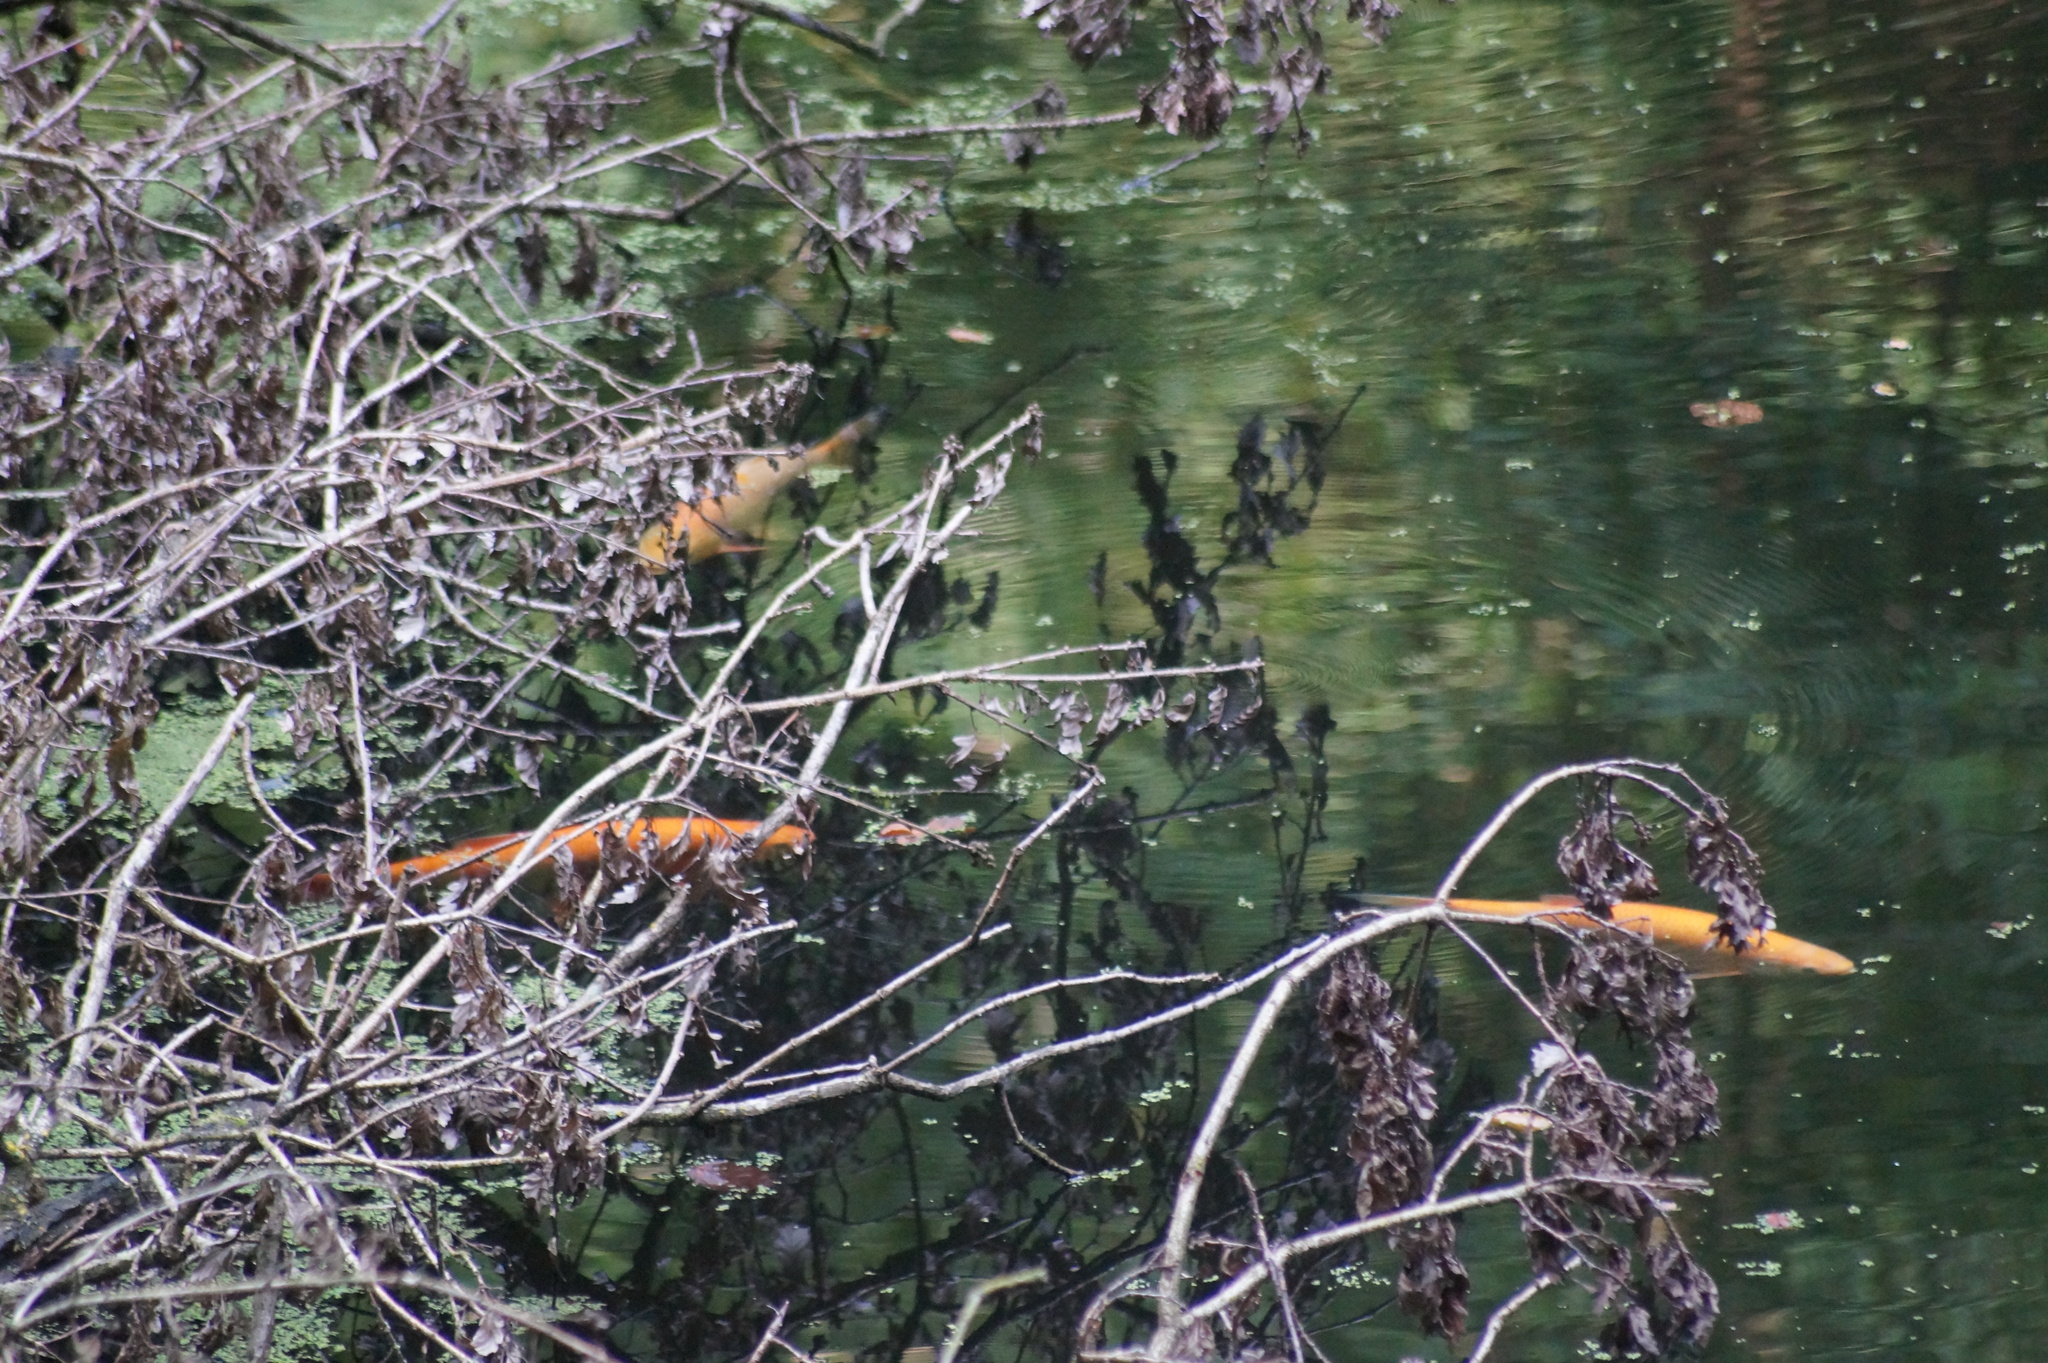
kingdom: Animalia
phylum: Chordata
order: Cypriniformes
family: Cyprinidae
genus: Leuciscus
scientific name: Leuciscus idus
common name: Ide
